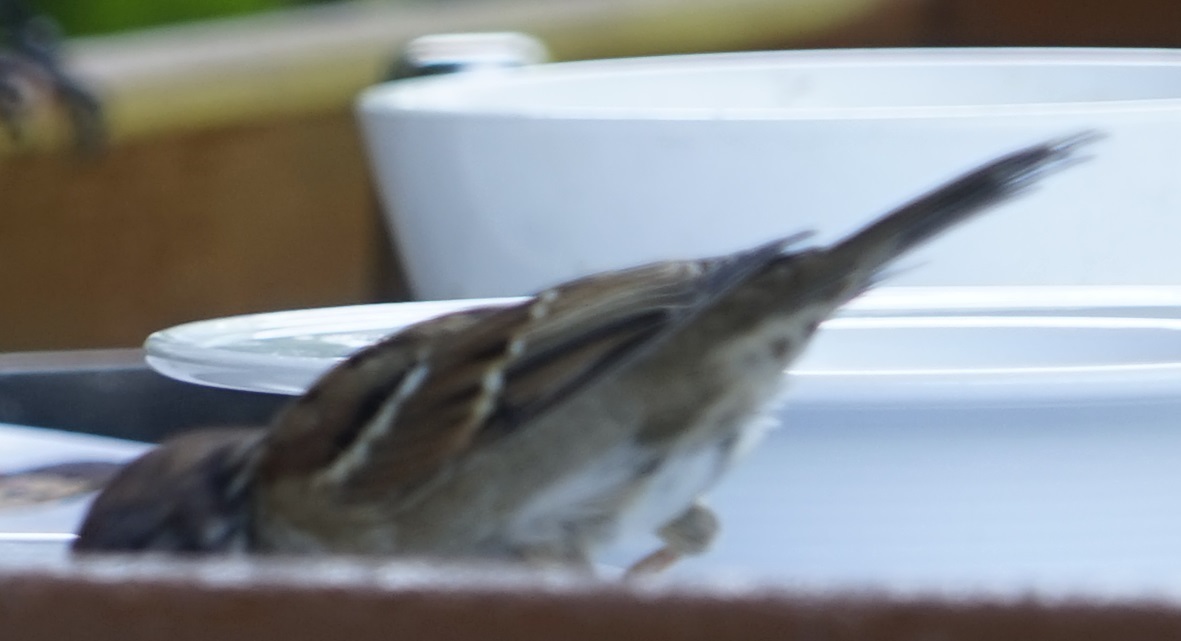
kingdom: Animalia
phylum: Chordata
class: Aves
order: Passeriformes
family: Passeridae
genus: Passer
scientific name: Passer montanus
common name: Eurasian tree sparrow
